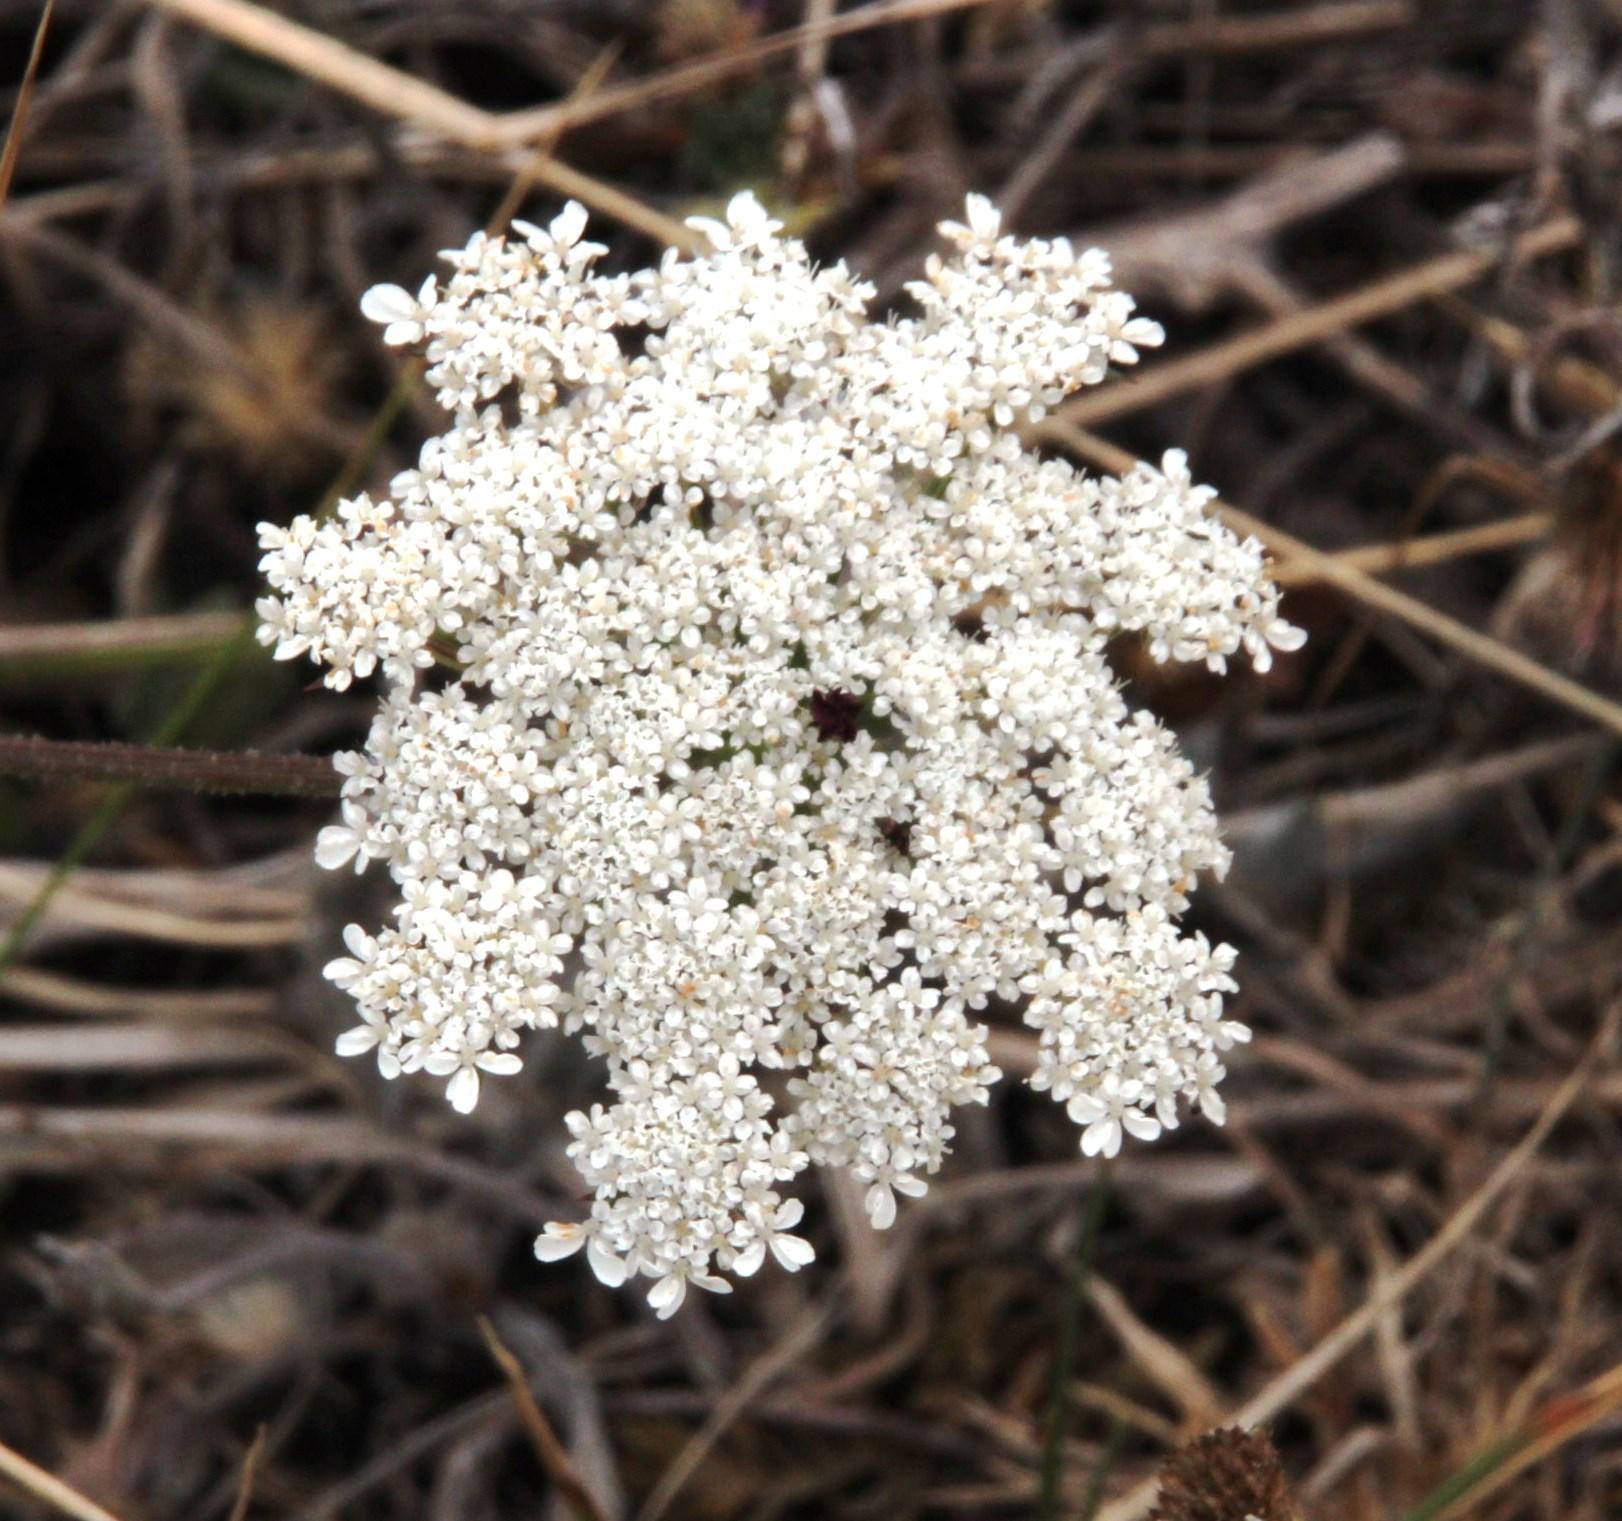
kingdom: Plantae
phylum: Tracheophyta
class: Magnoliopsida
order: Apiales
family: Apiaceae
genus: Daucus
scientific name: Daucus carota
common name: Wild carrot
